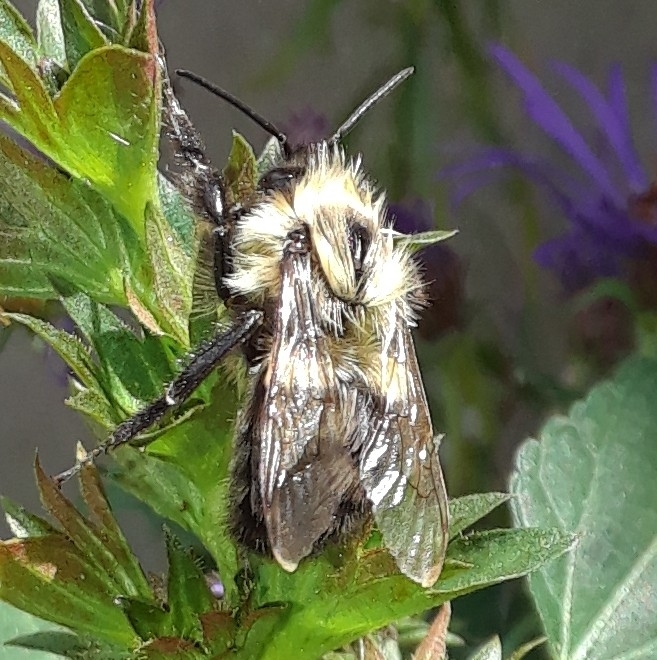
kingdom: Animalia
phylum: Arthropoda
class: Insecta
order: Hymenoptera
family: Apidae
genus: Bombus
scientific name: Bombus impatiens
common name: Common eastern bumble bee
